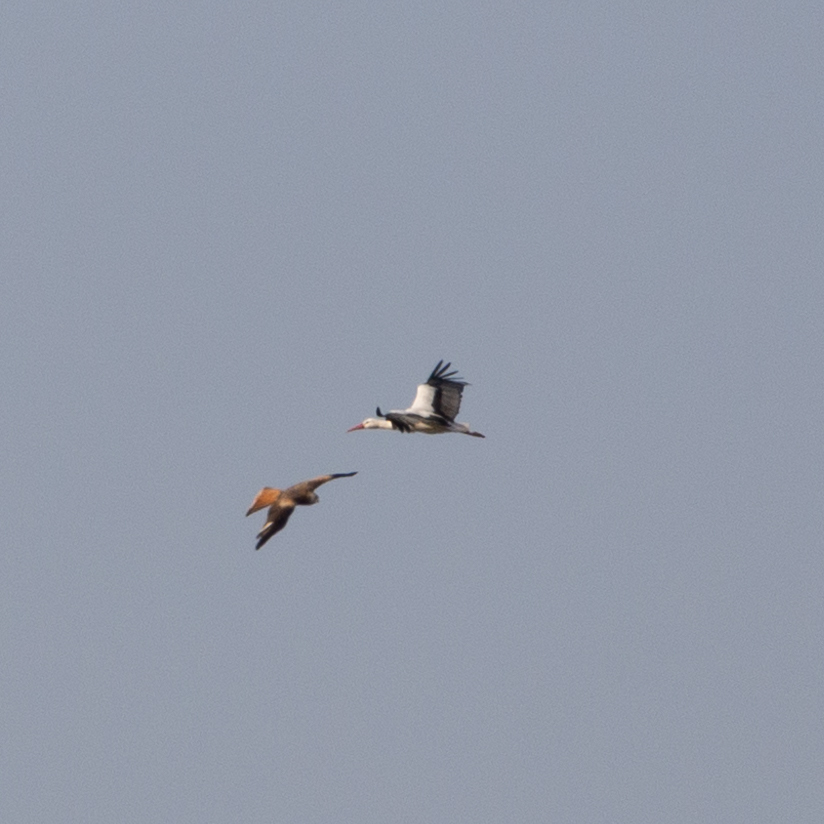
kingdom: Animalia
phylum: Chordata
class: Aves
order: Ciconiiformes
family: Ciconiidae
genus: Ciconia
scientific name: Ciconia ciconia
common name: White stork
